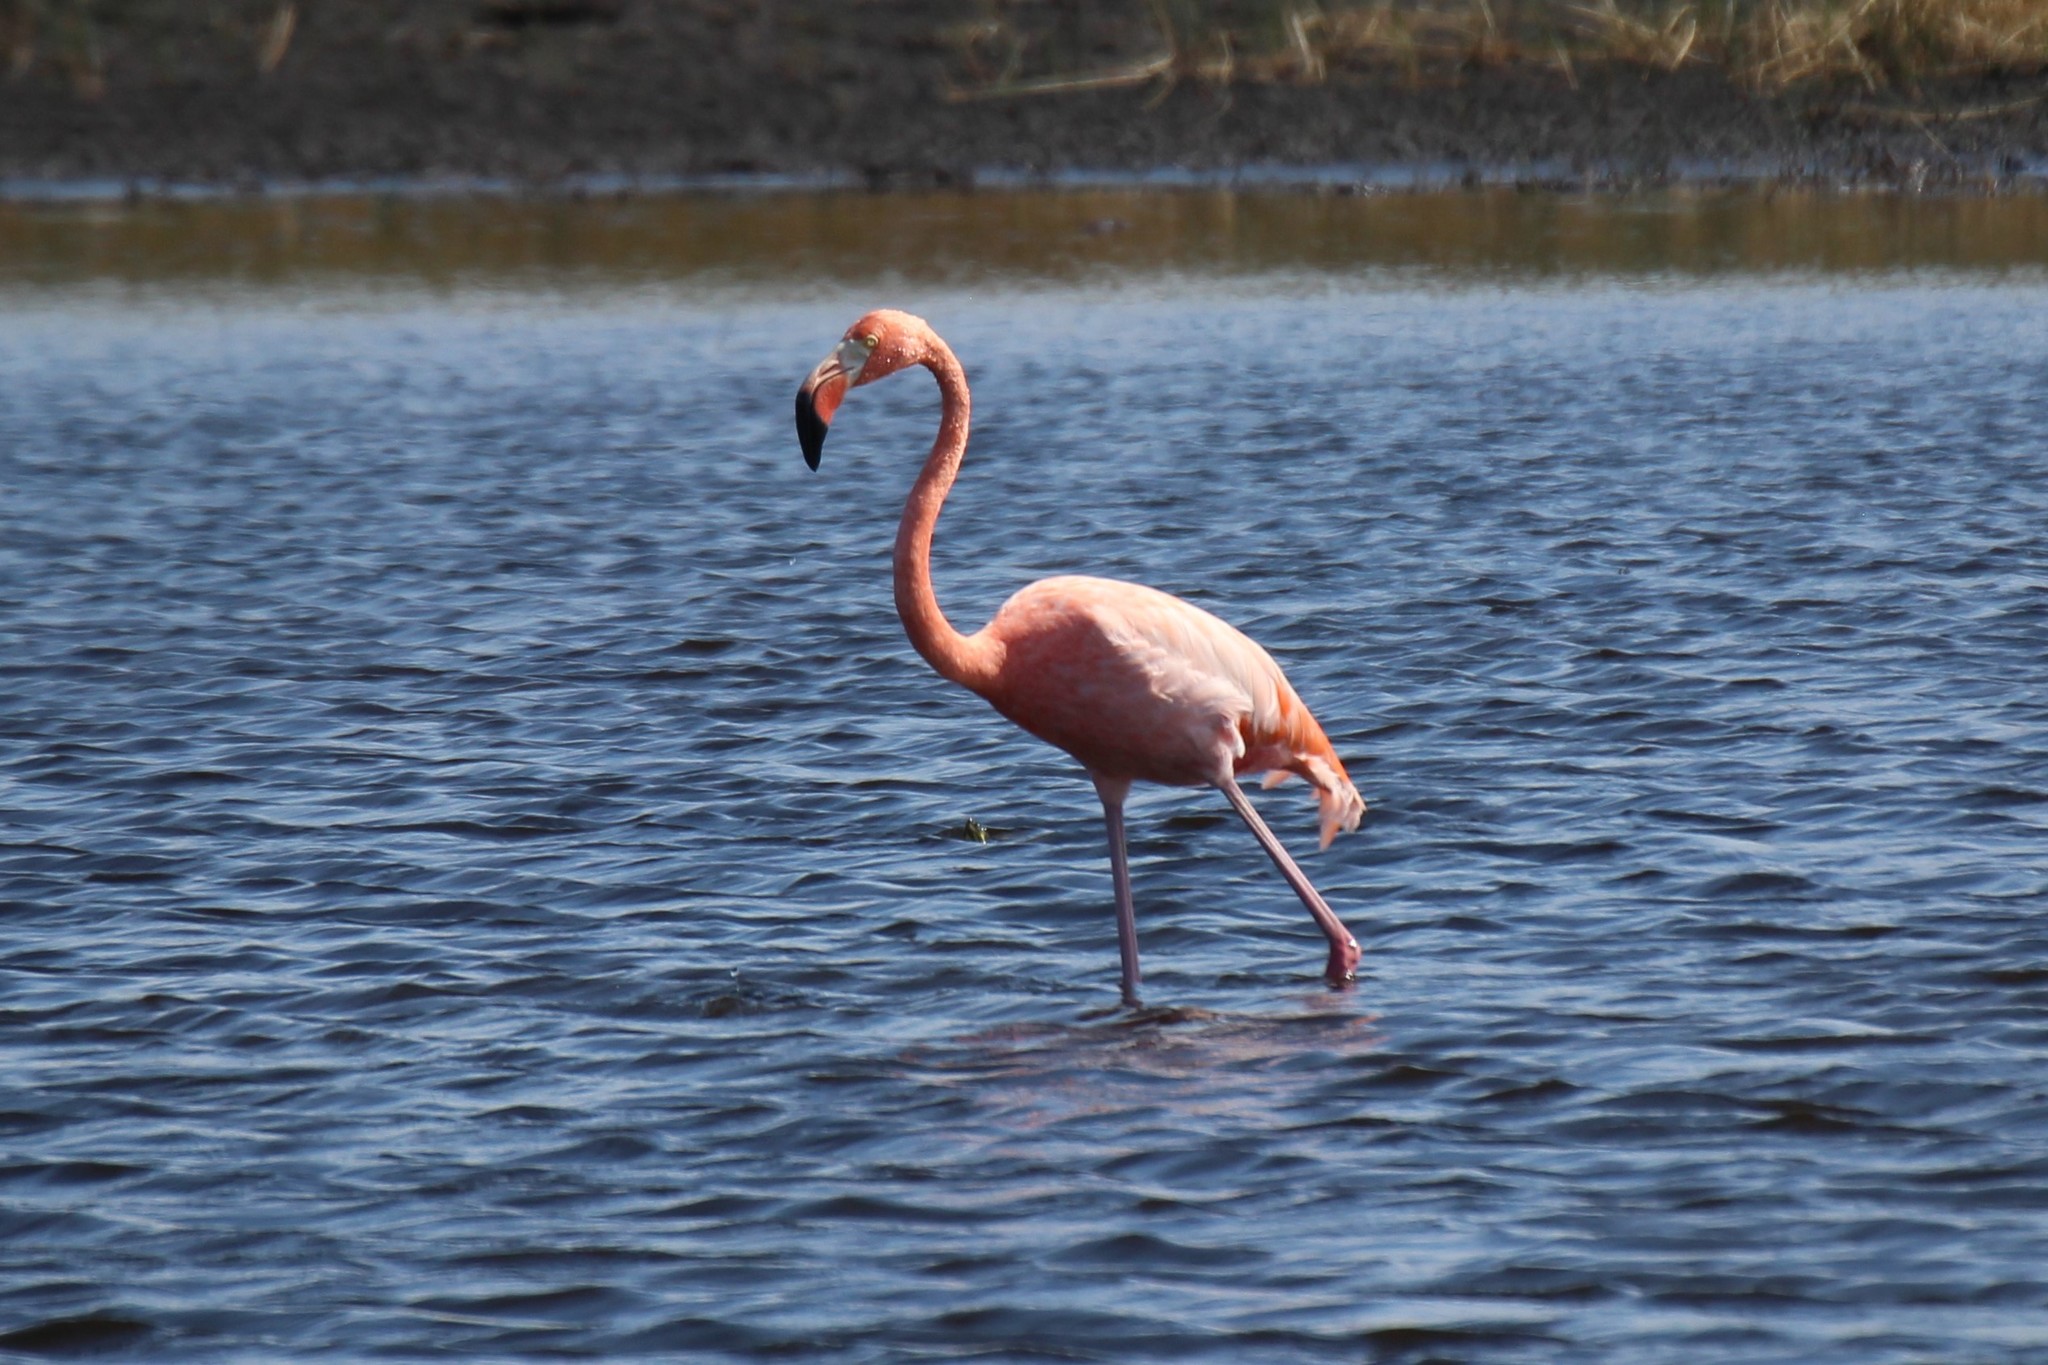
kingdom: Animalia
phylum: Chordata
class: Aves
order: Phoenicopteriformes
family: Phoenicopteridae
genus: Phoenicopterus
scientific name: Phoenicopterus ruber
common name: American flamingo
